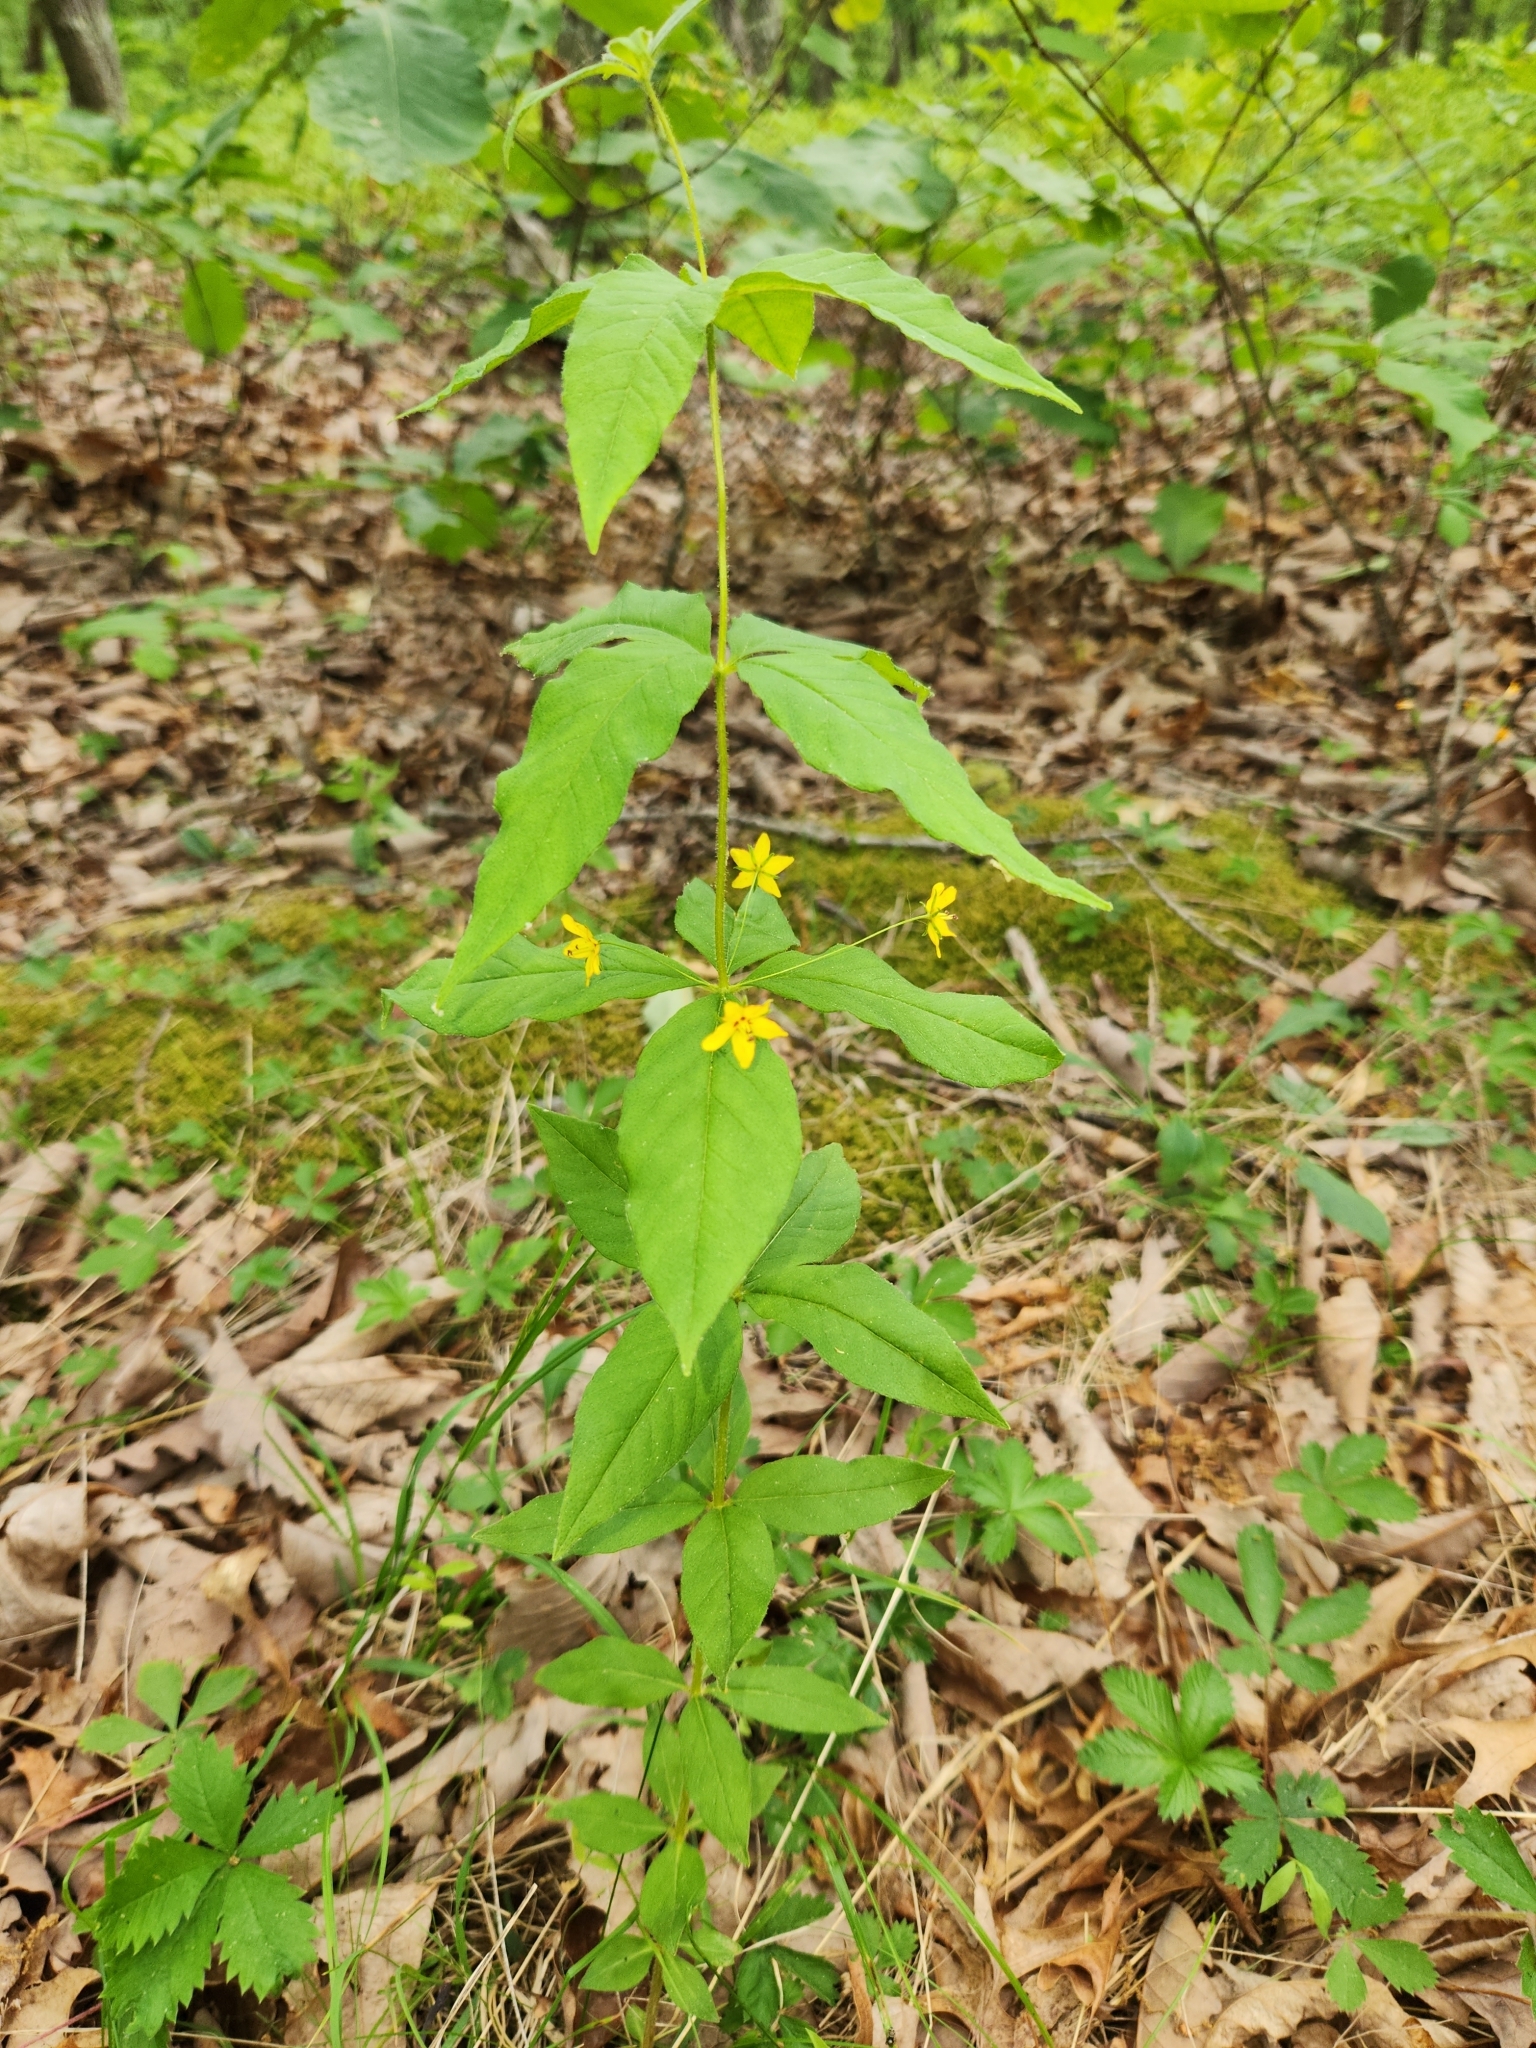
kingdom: Plantae
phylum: Tracheophyta
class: Magnoliopsida
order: Ericales
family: Primulaceae
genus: Lysimachia
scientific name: Lysimachia quadrifolia
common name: Whorled loosestrife
